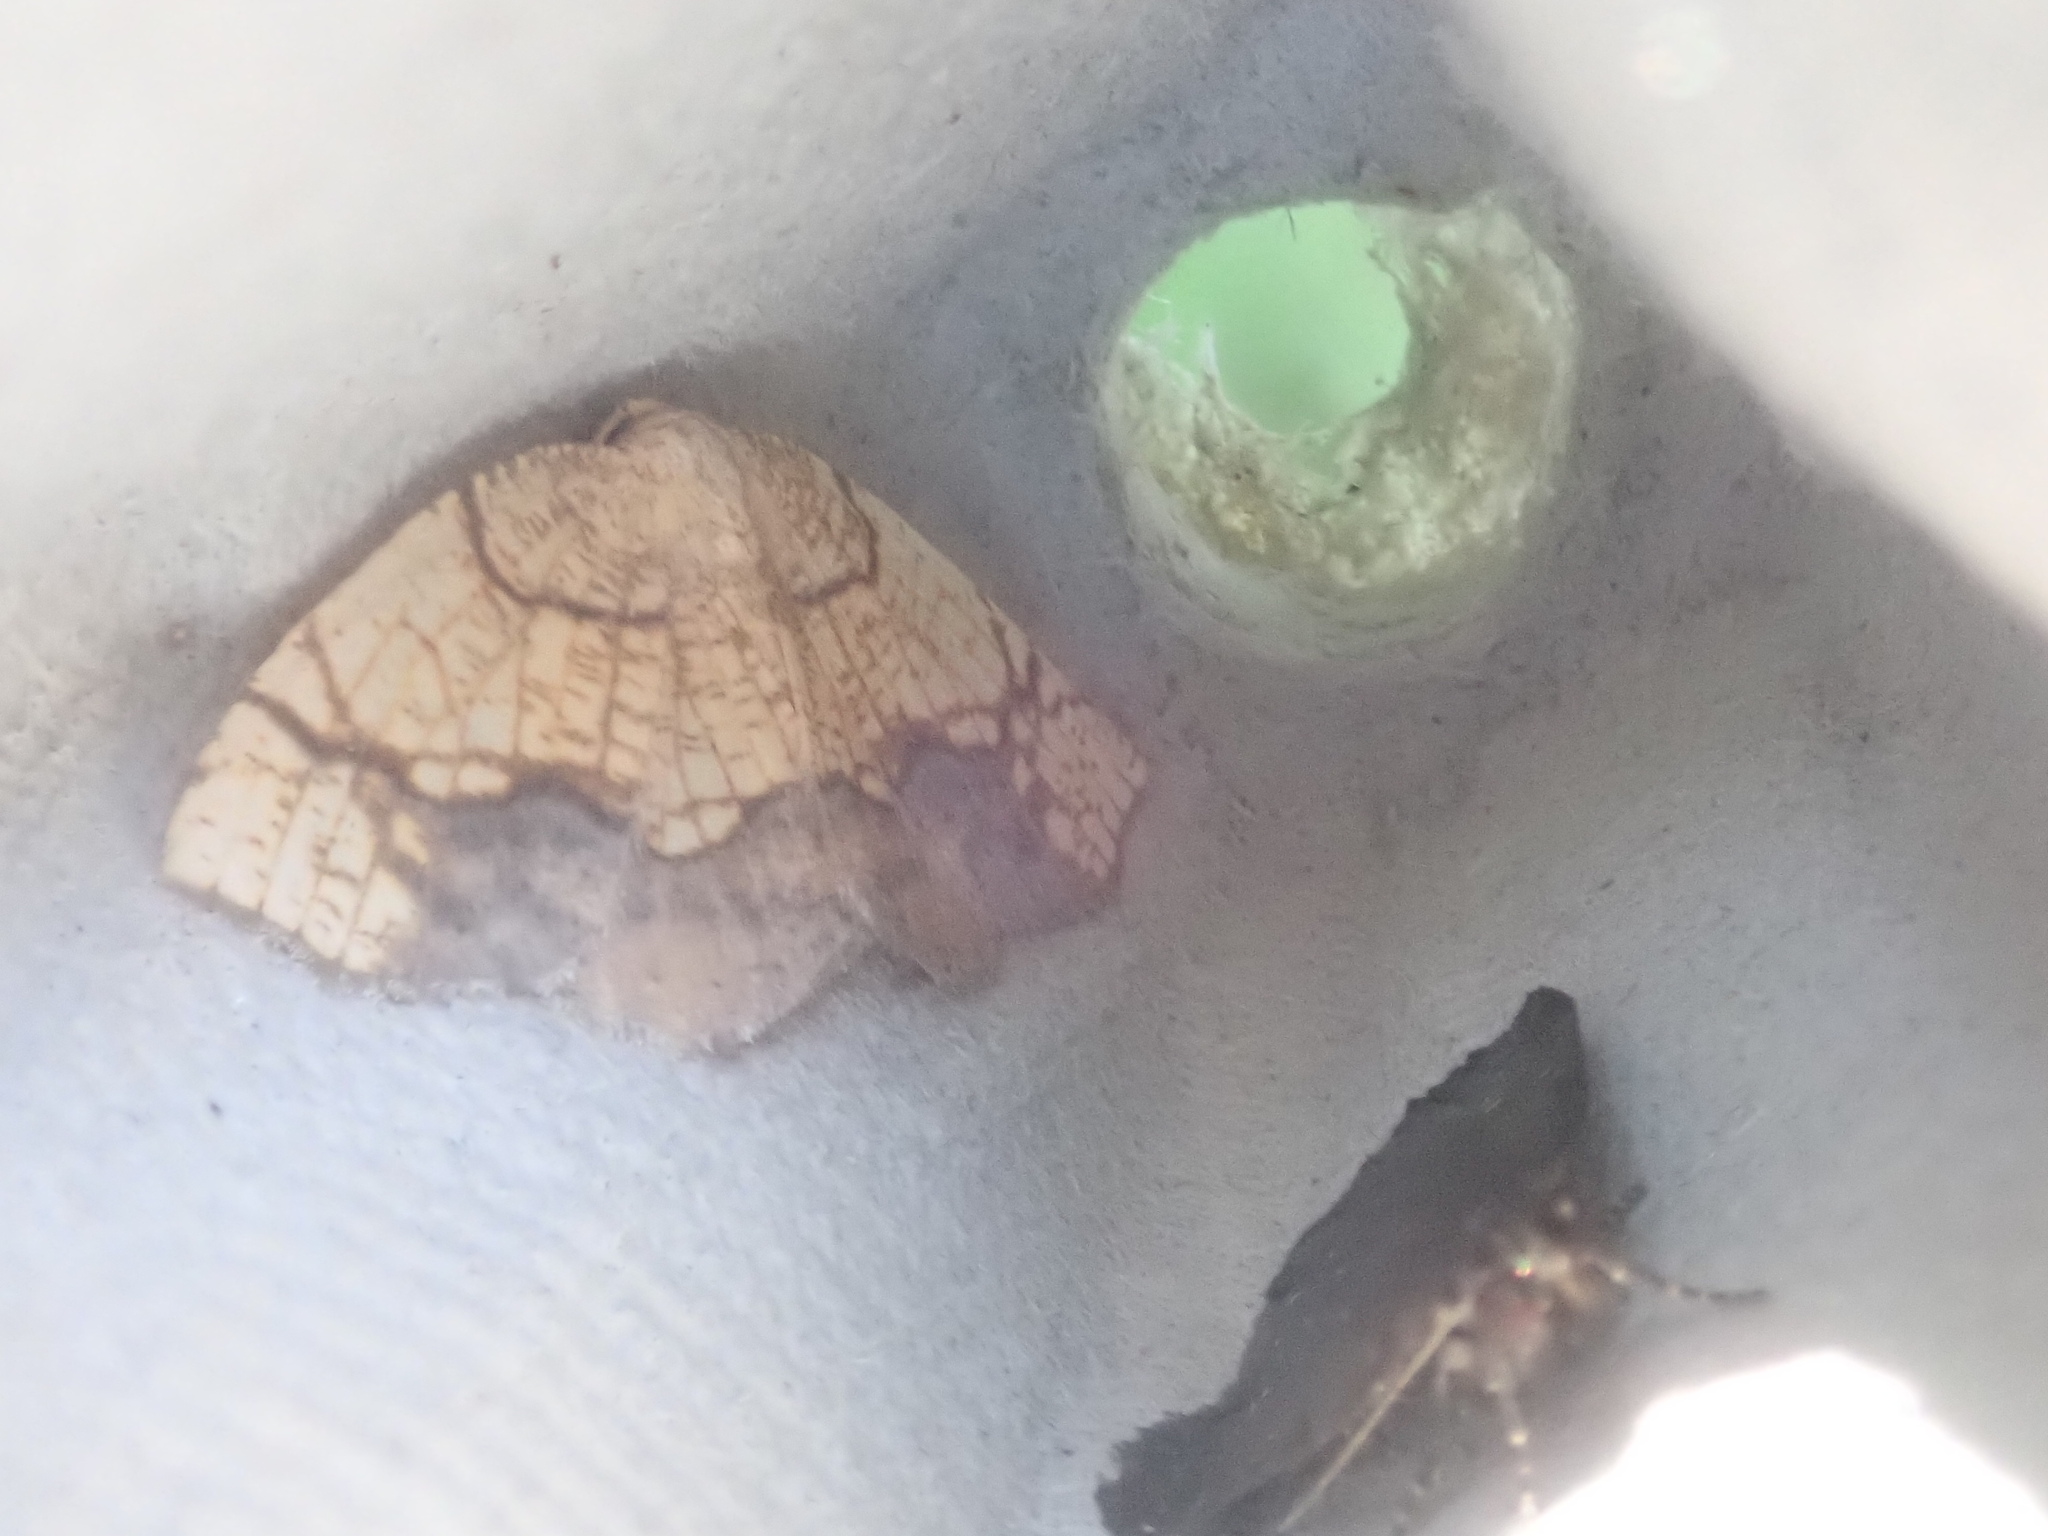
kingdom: Animalia
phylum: Arthropoda
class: Insecta
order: Lepidoptera
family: Geometridae
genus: Nematocampa
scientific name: Nematocampa resistaria
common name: Horned spanworm moth
